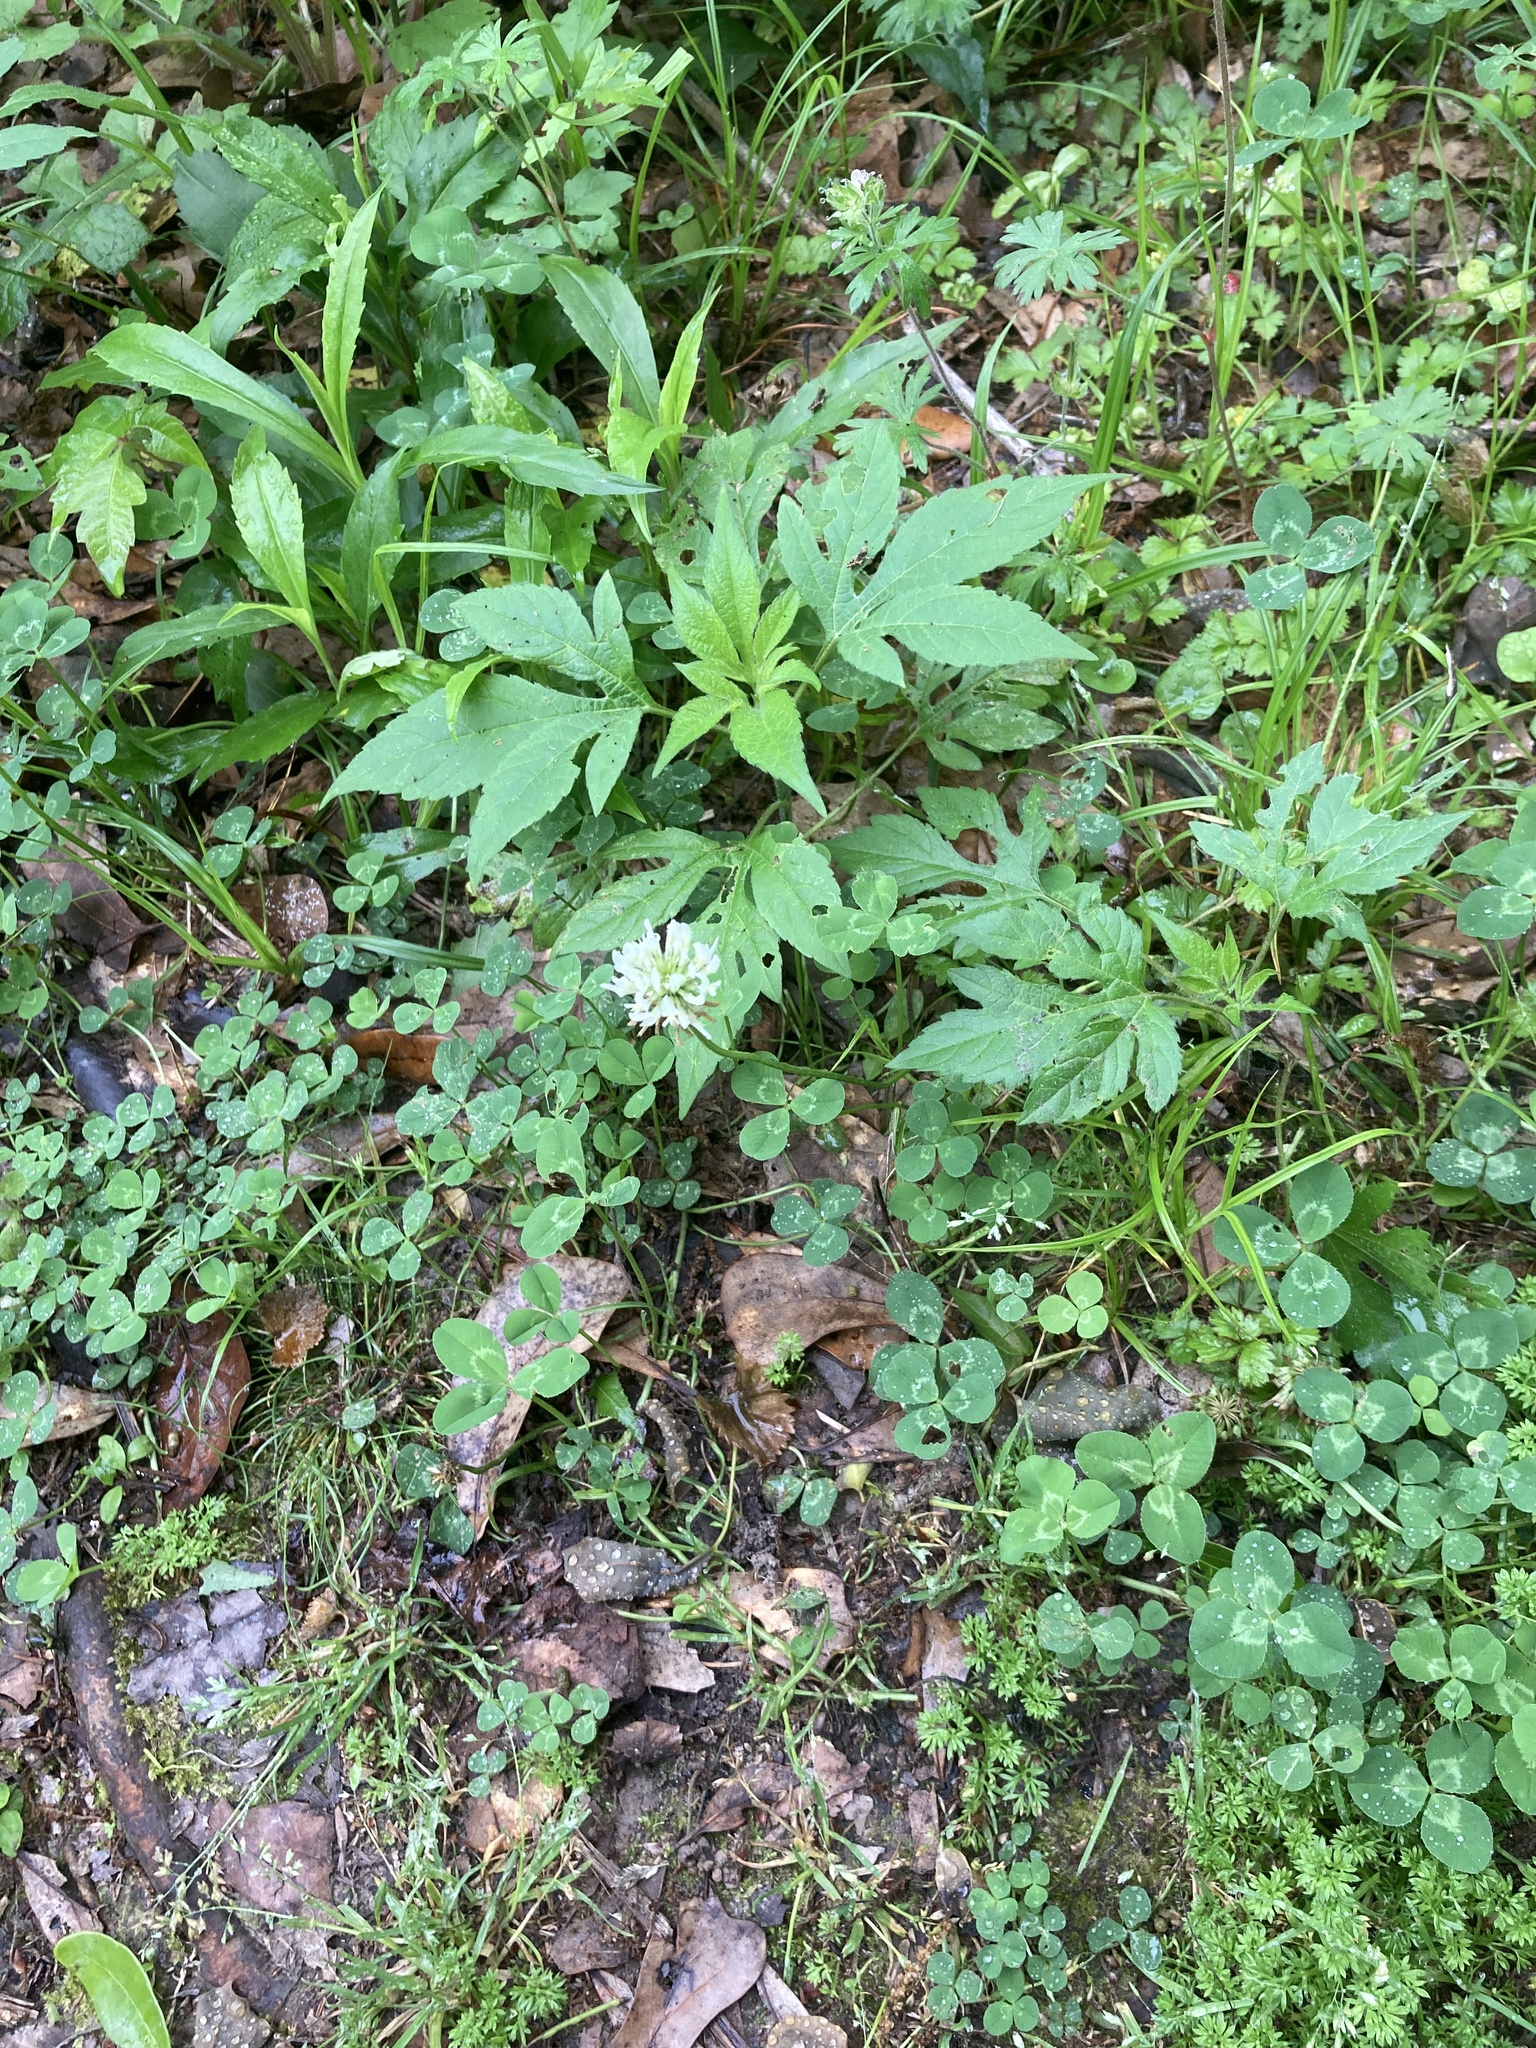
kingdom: Plantae
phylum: Tracheophyta
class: Magnoliopsida
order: Fabales
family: Fabaceae
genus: Trifolium
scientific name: Trifolium repens
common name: White clover
